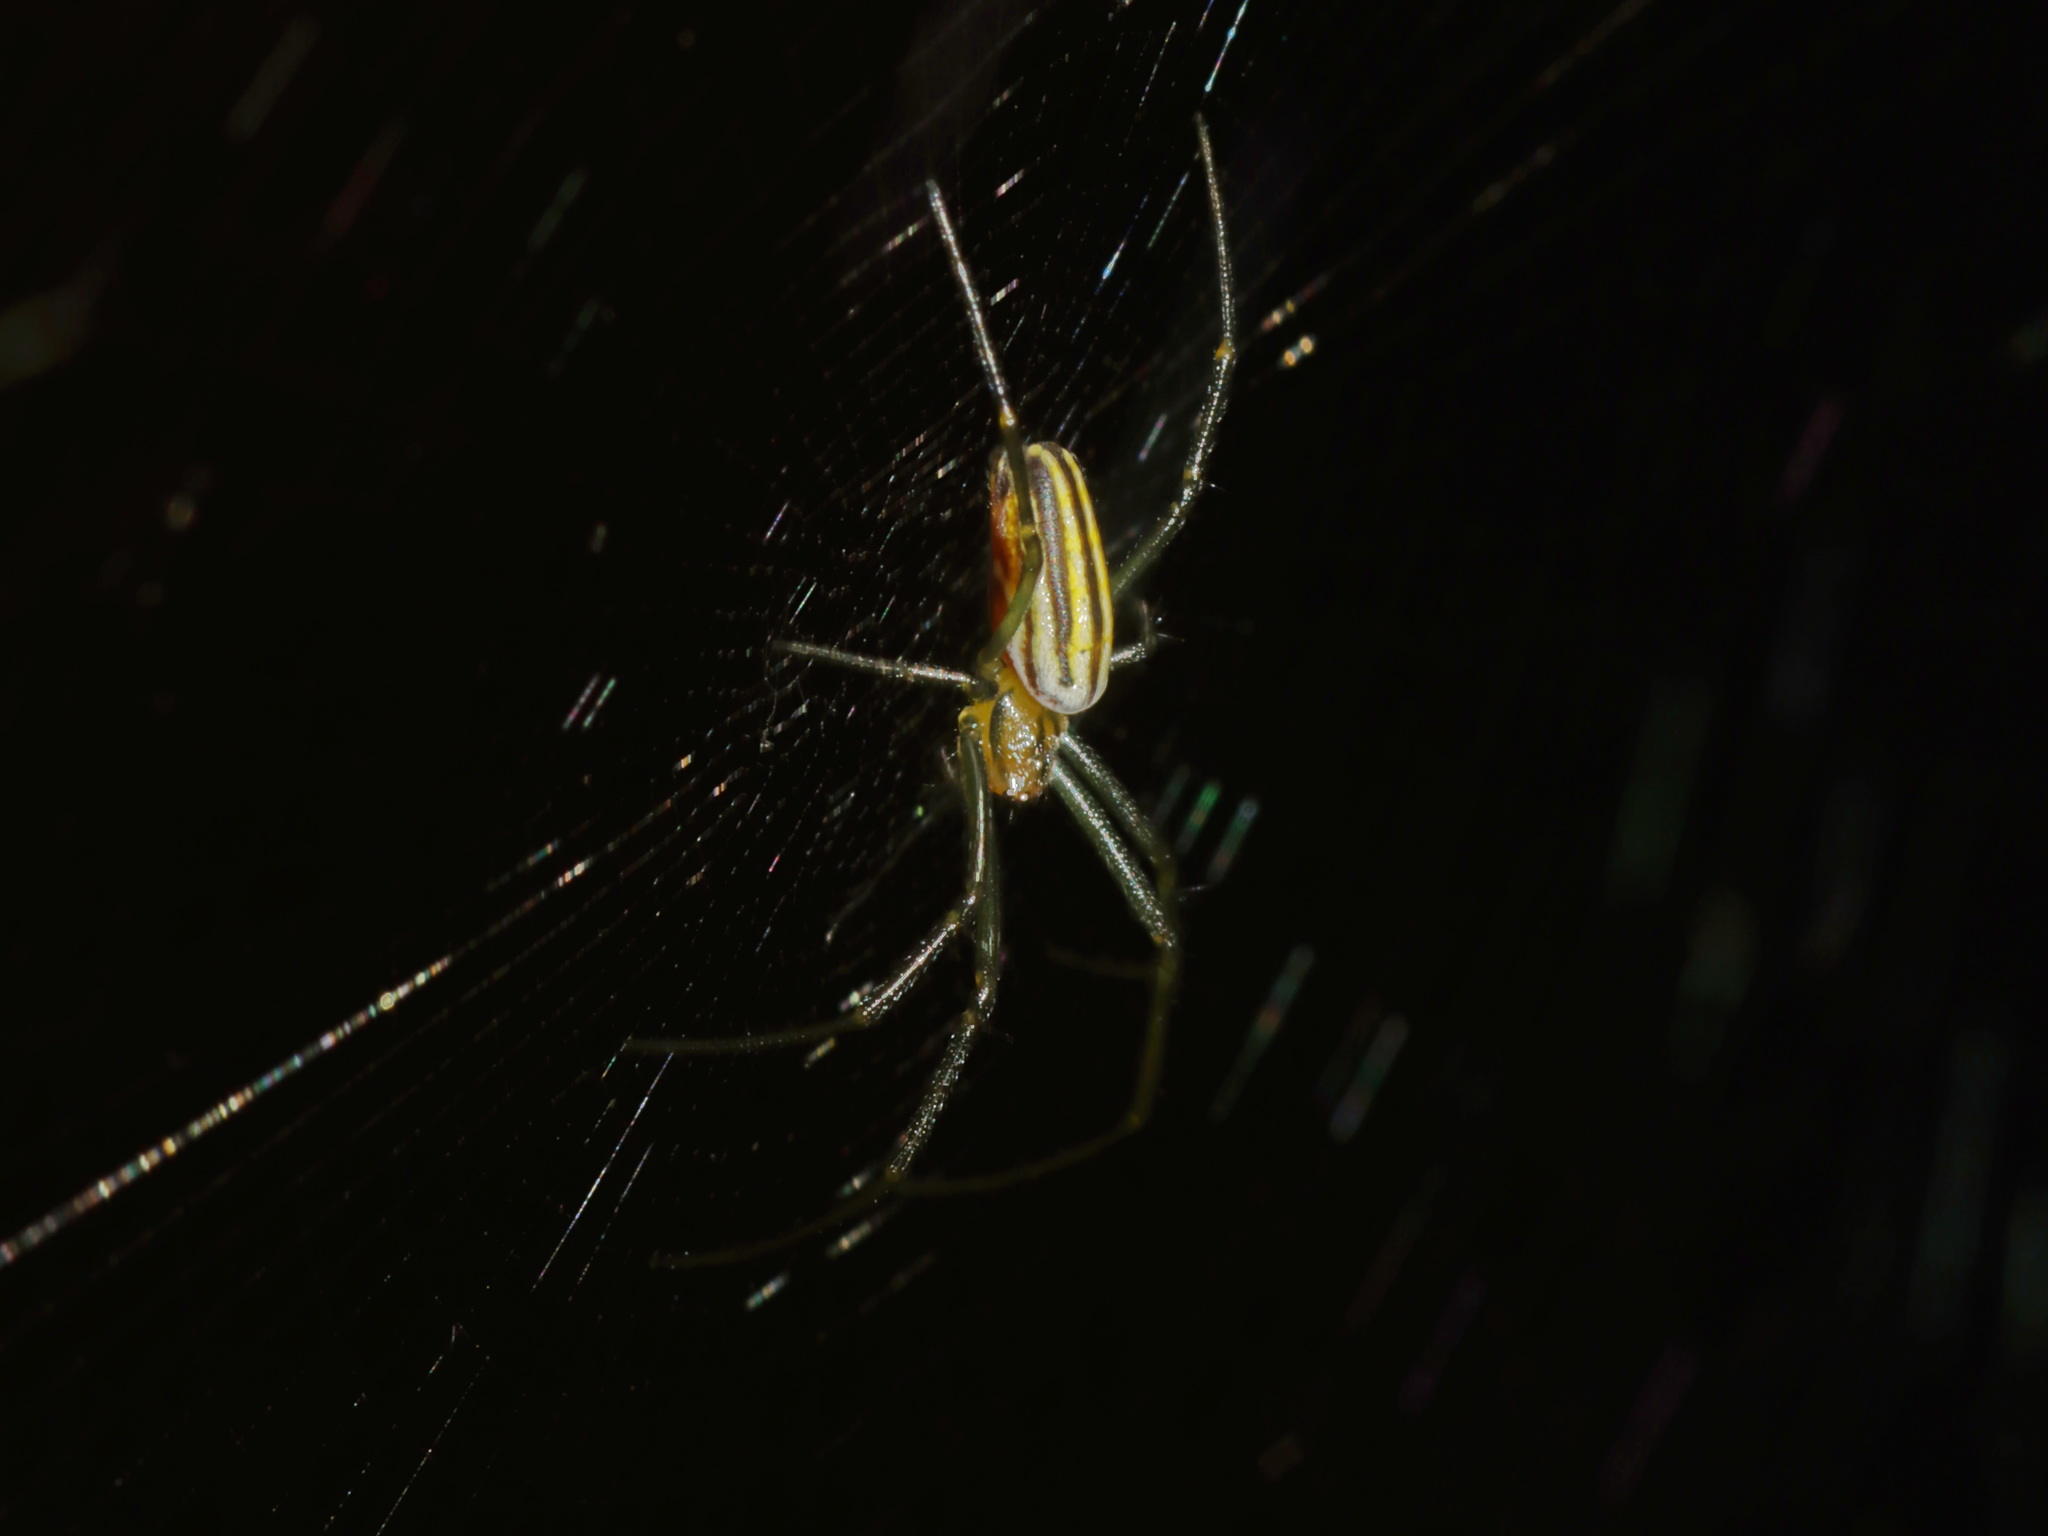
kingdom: Animalia
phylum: Arthropoda
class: Arachnida
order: Araneae
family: Araneidae
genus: Nephila
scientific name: Nephila pilipes
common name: Giant golden orb weaver
